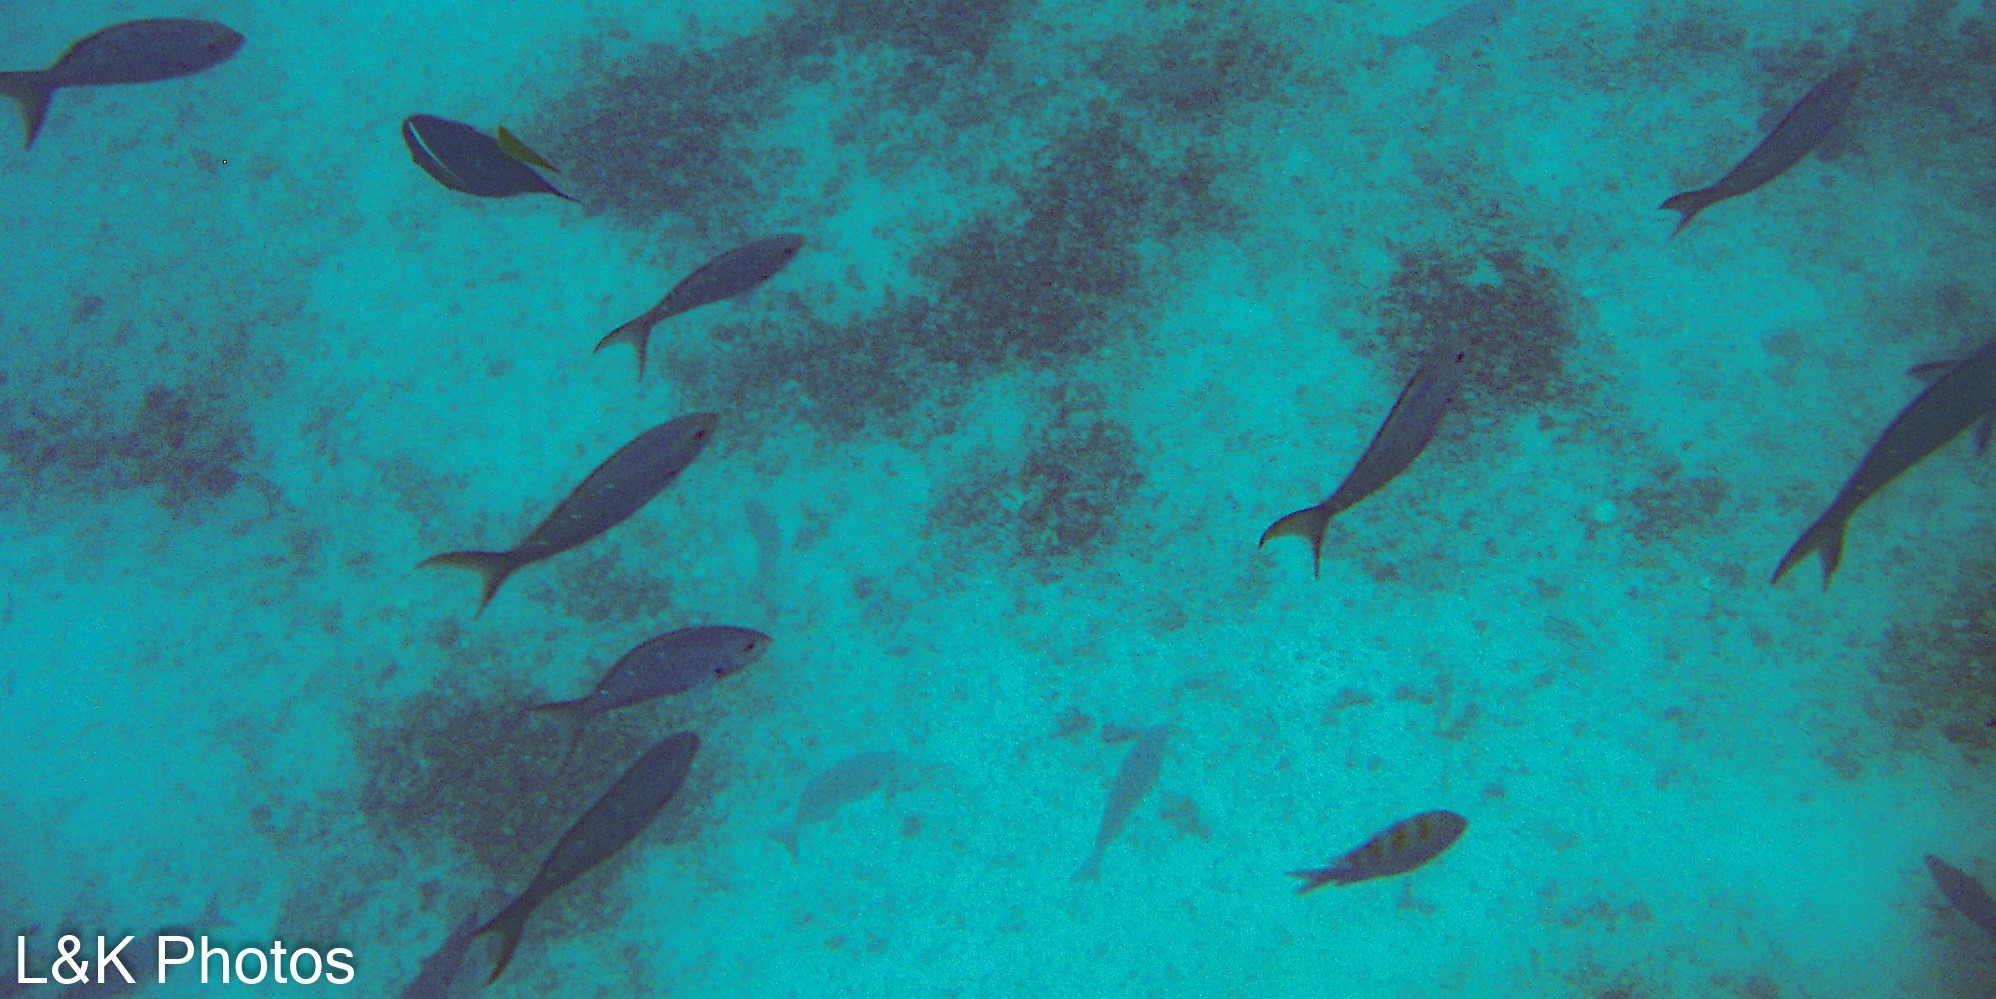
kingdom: Animalia
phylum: Chordata
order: Perciformes
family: Serranidae
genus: Paranthias
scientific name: Paranthias colonus
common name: Pacific creole-fish
